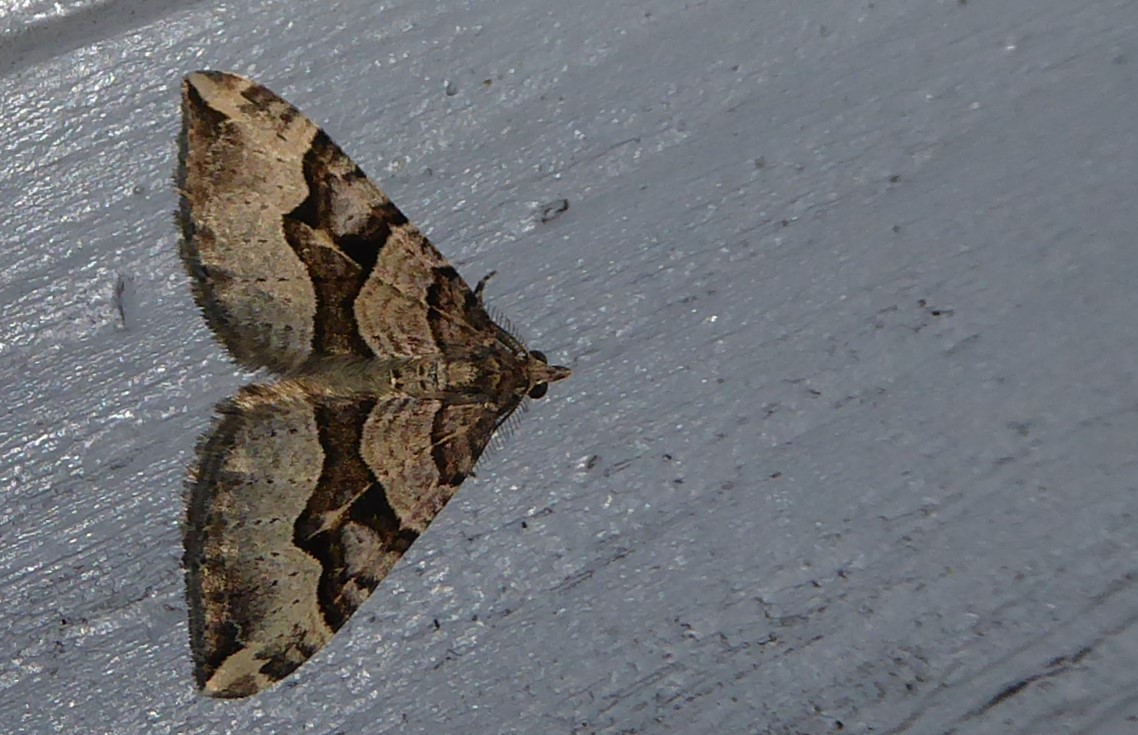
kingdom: Animalia
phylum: Arthropoda
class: Insecta
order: Lepidoptera
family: Geometridae
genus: Xanthorhoe
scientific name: Xanthorhoe semifissata
